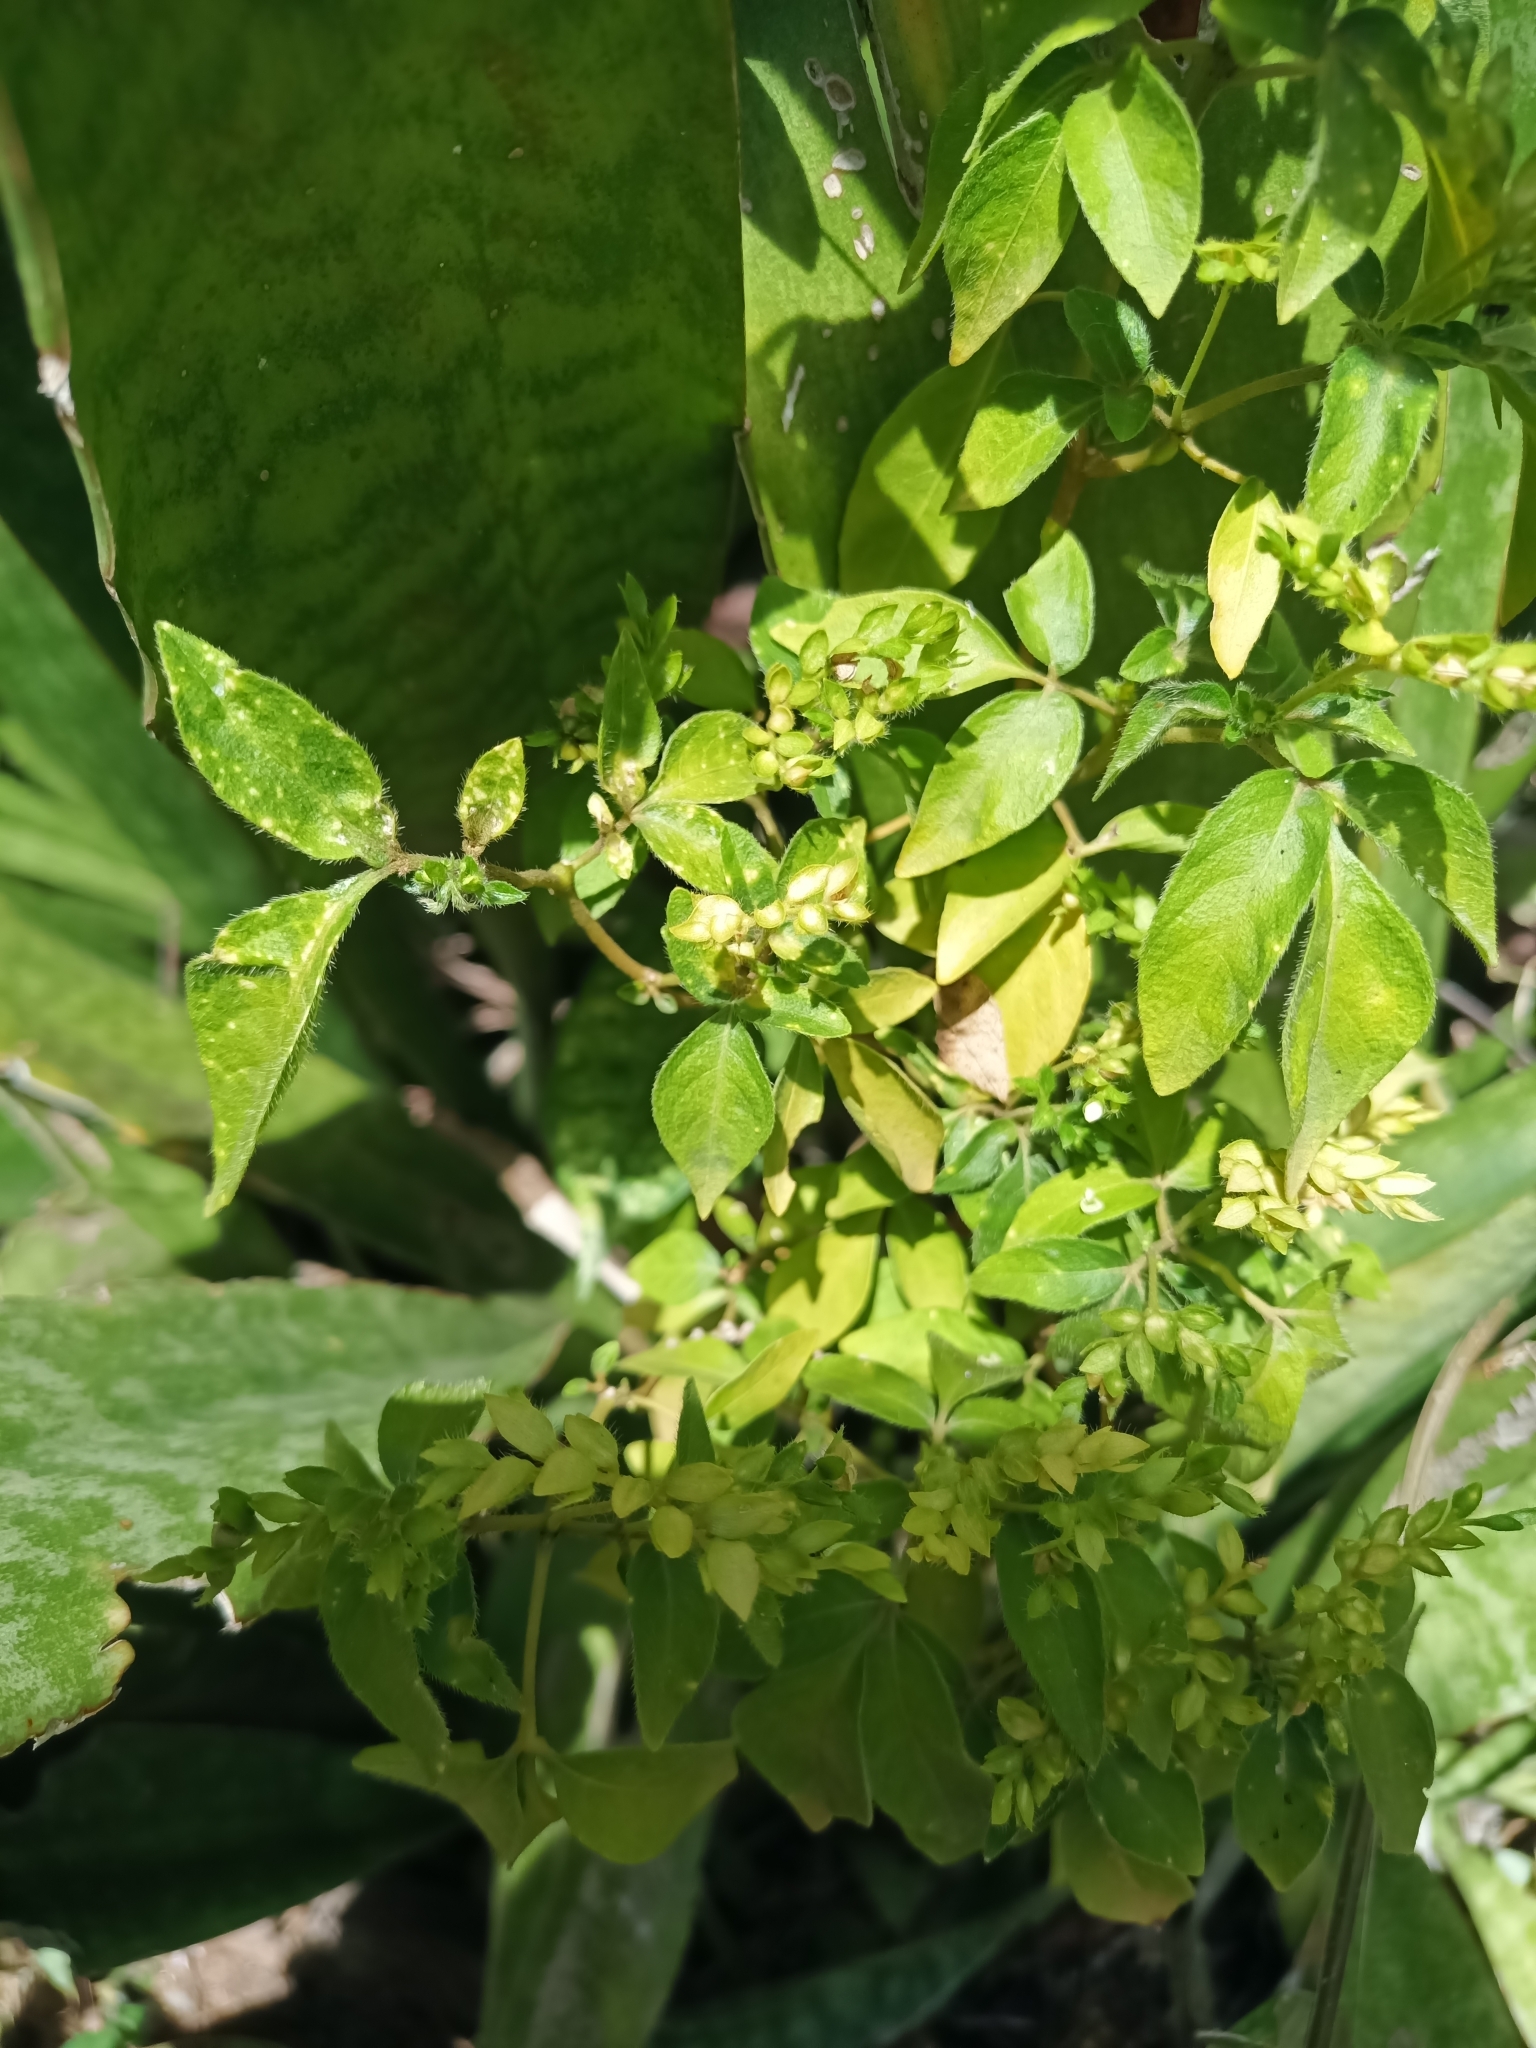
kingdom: Plantae
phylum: Tracheophyta
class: Magnoliopsida
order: Sapindales
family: Rutaceae
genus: Ertela
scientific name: Ertela trifolia
